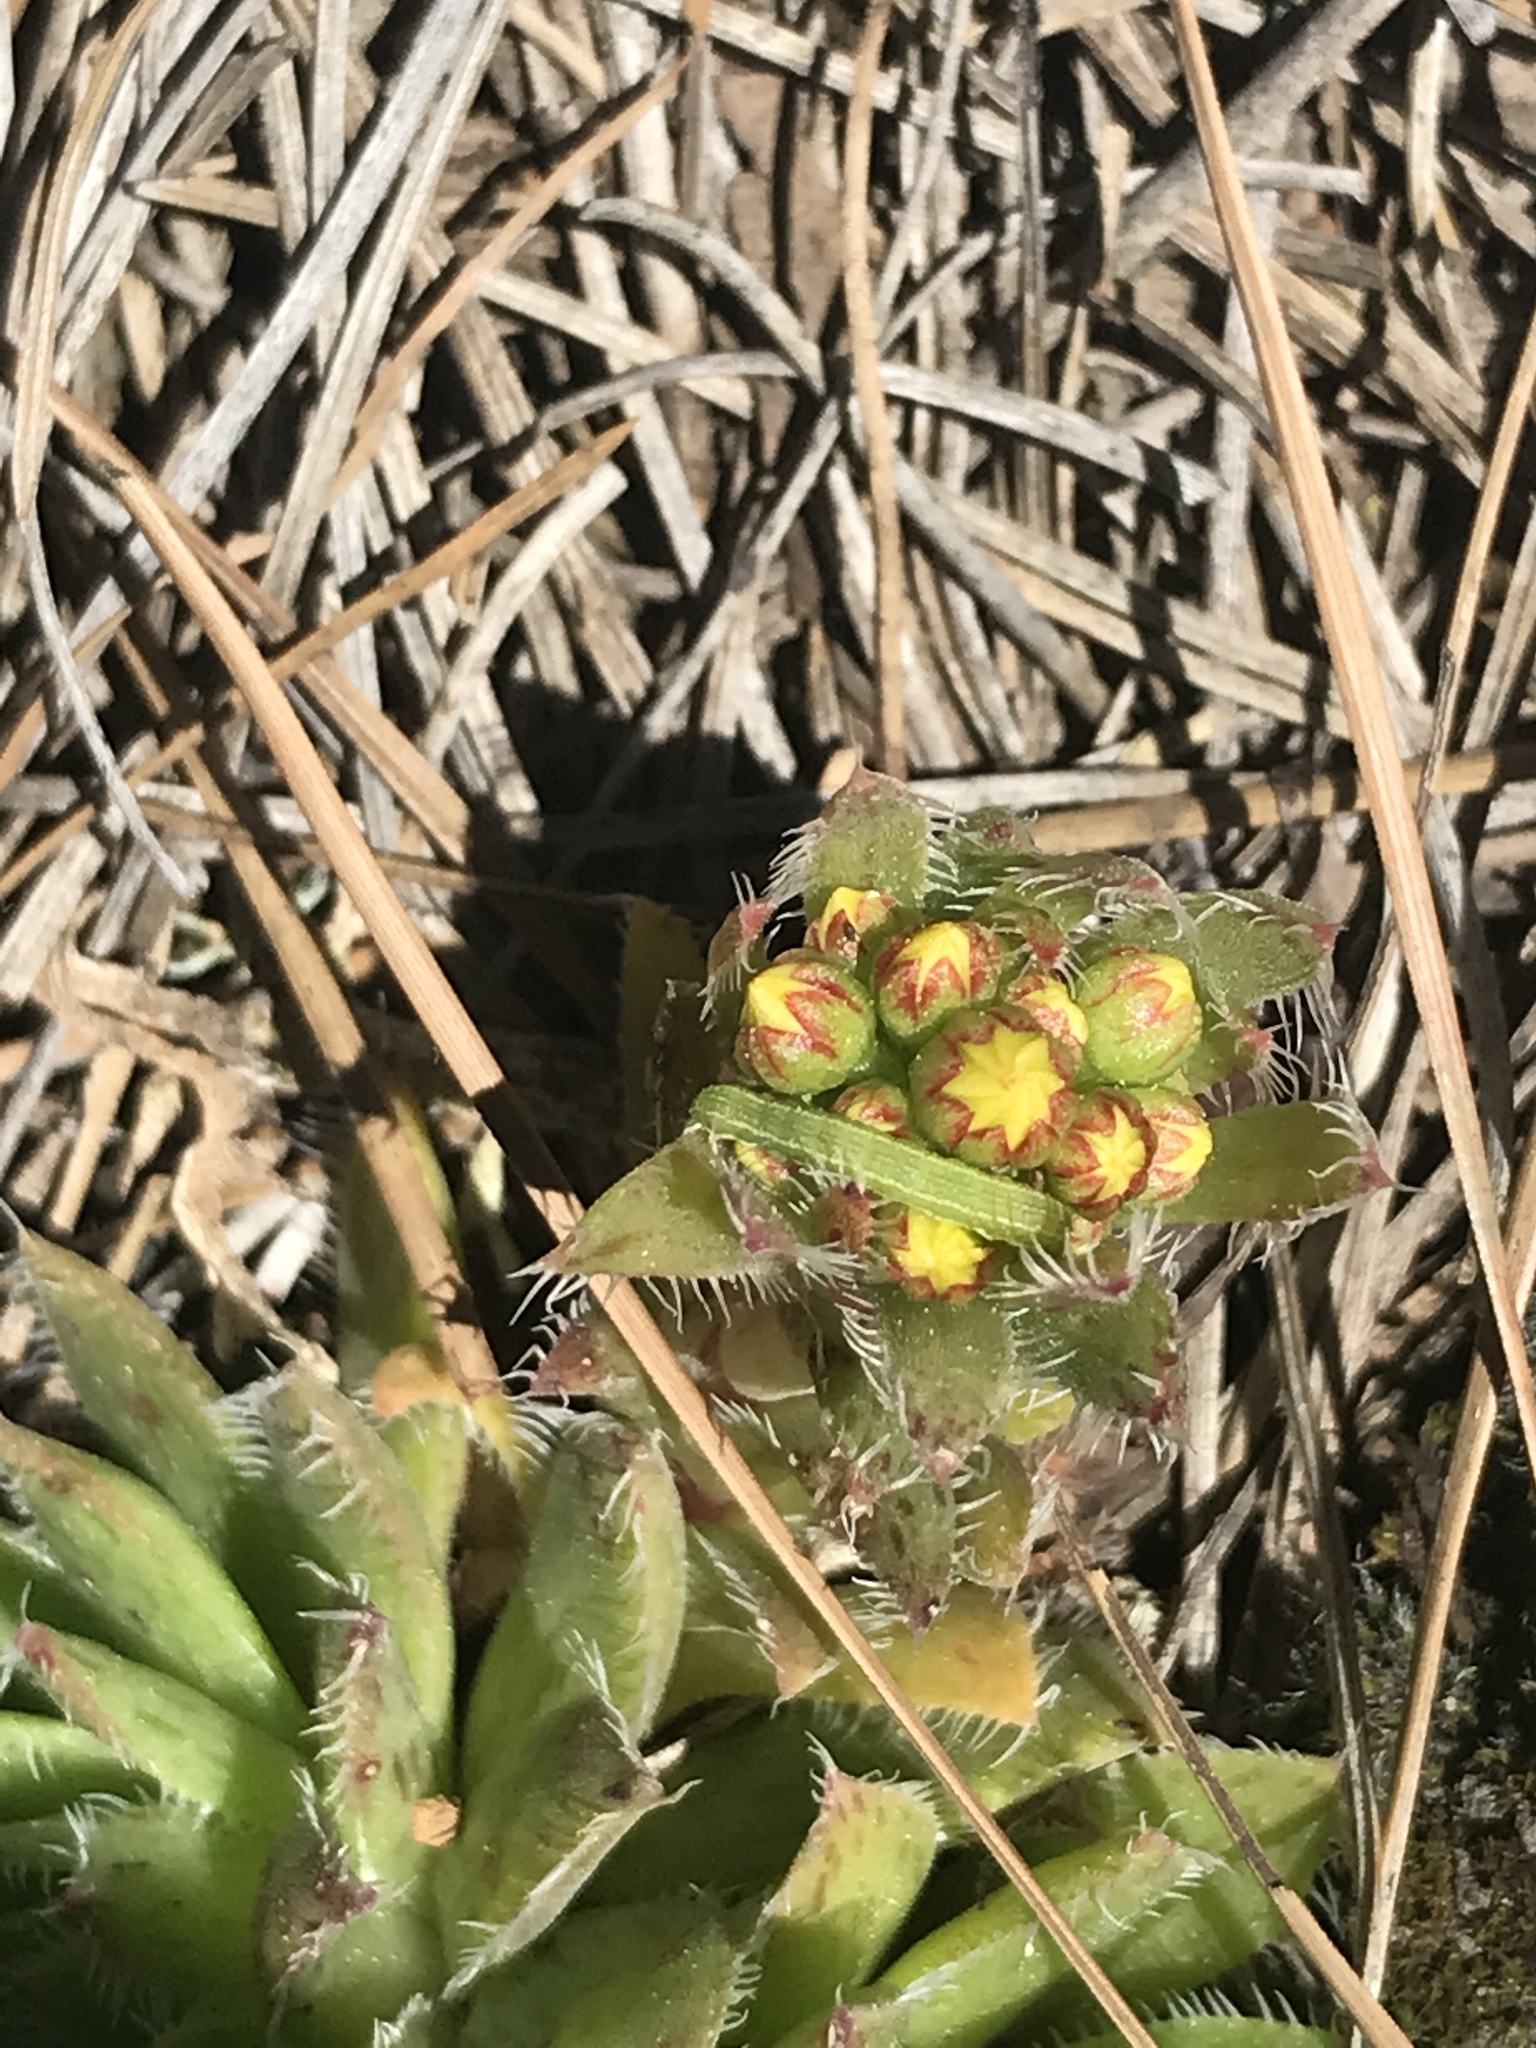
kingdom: Plantae
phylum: Tracheophyta
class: Magnoliopsida
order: Saxifragales
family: Crassulaceae
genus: Aeonium
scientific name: Aeonium simsii
